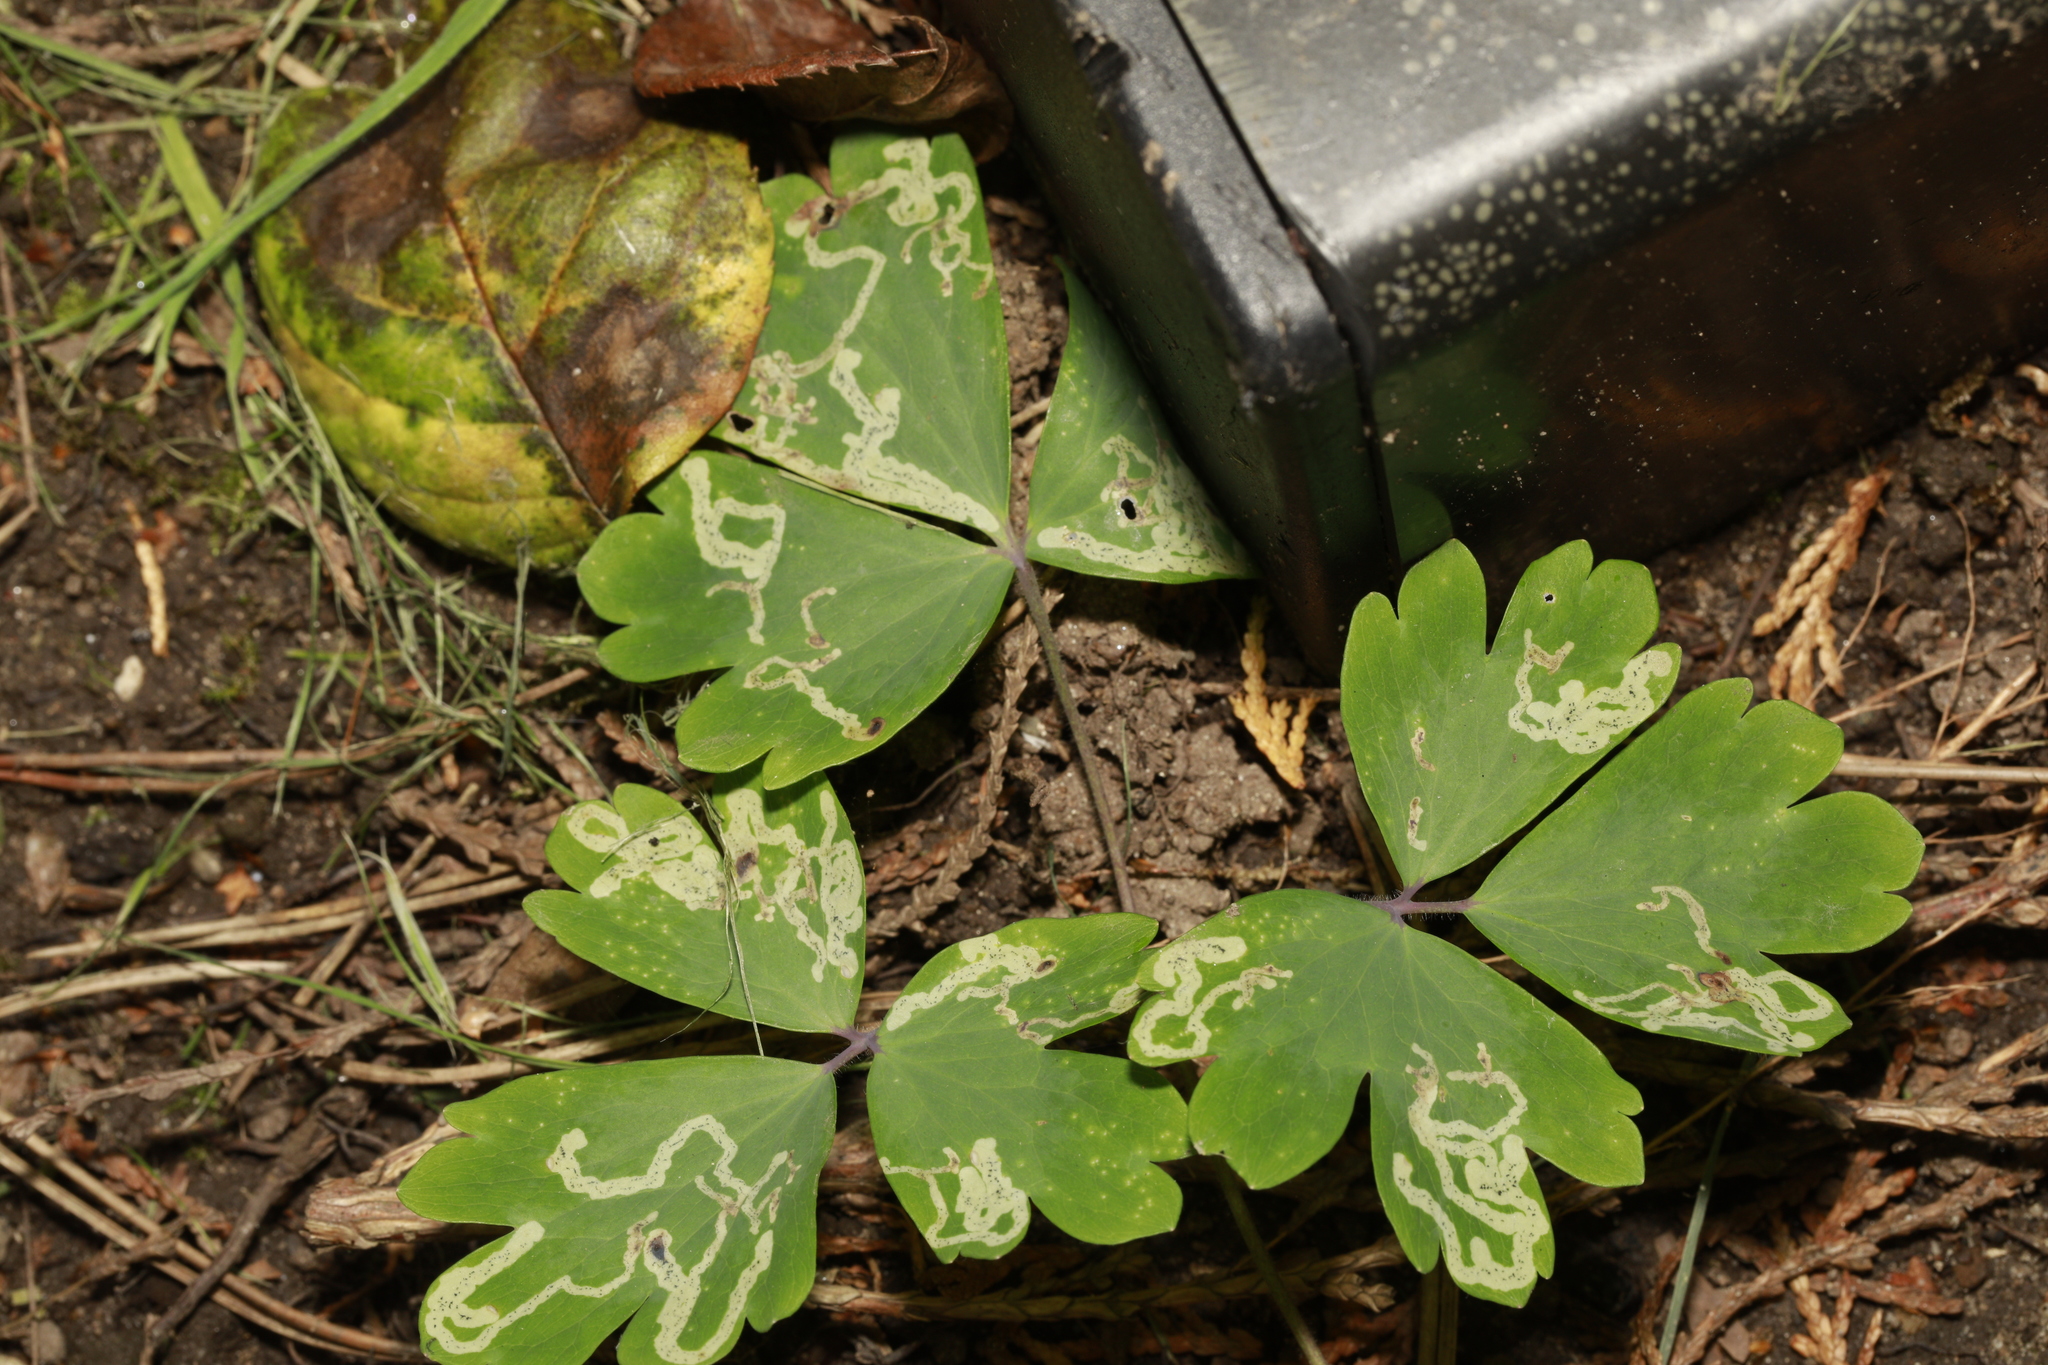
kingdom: Animalia
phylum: Arthropoda
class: Insecta
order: Diptera
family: Agromyzidae
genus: Phytomyza
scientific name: Phytomyza ancholiae
